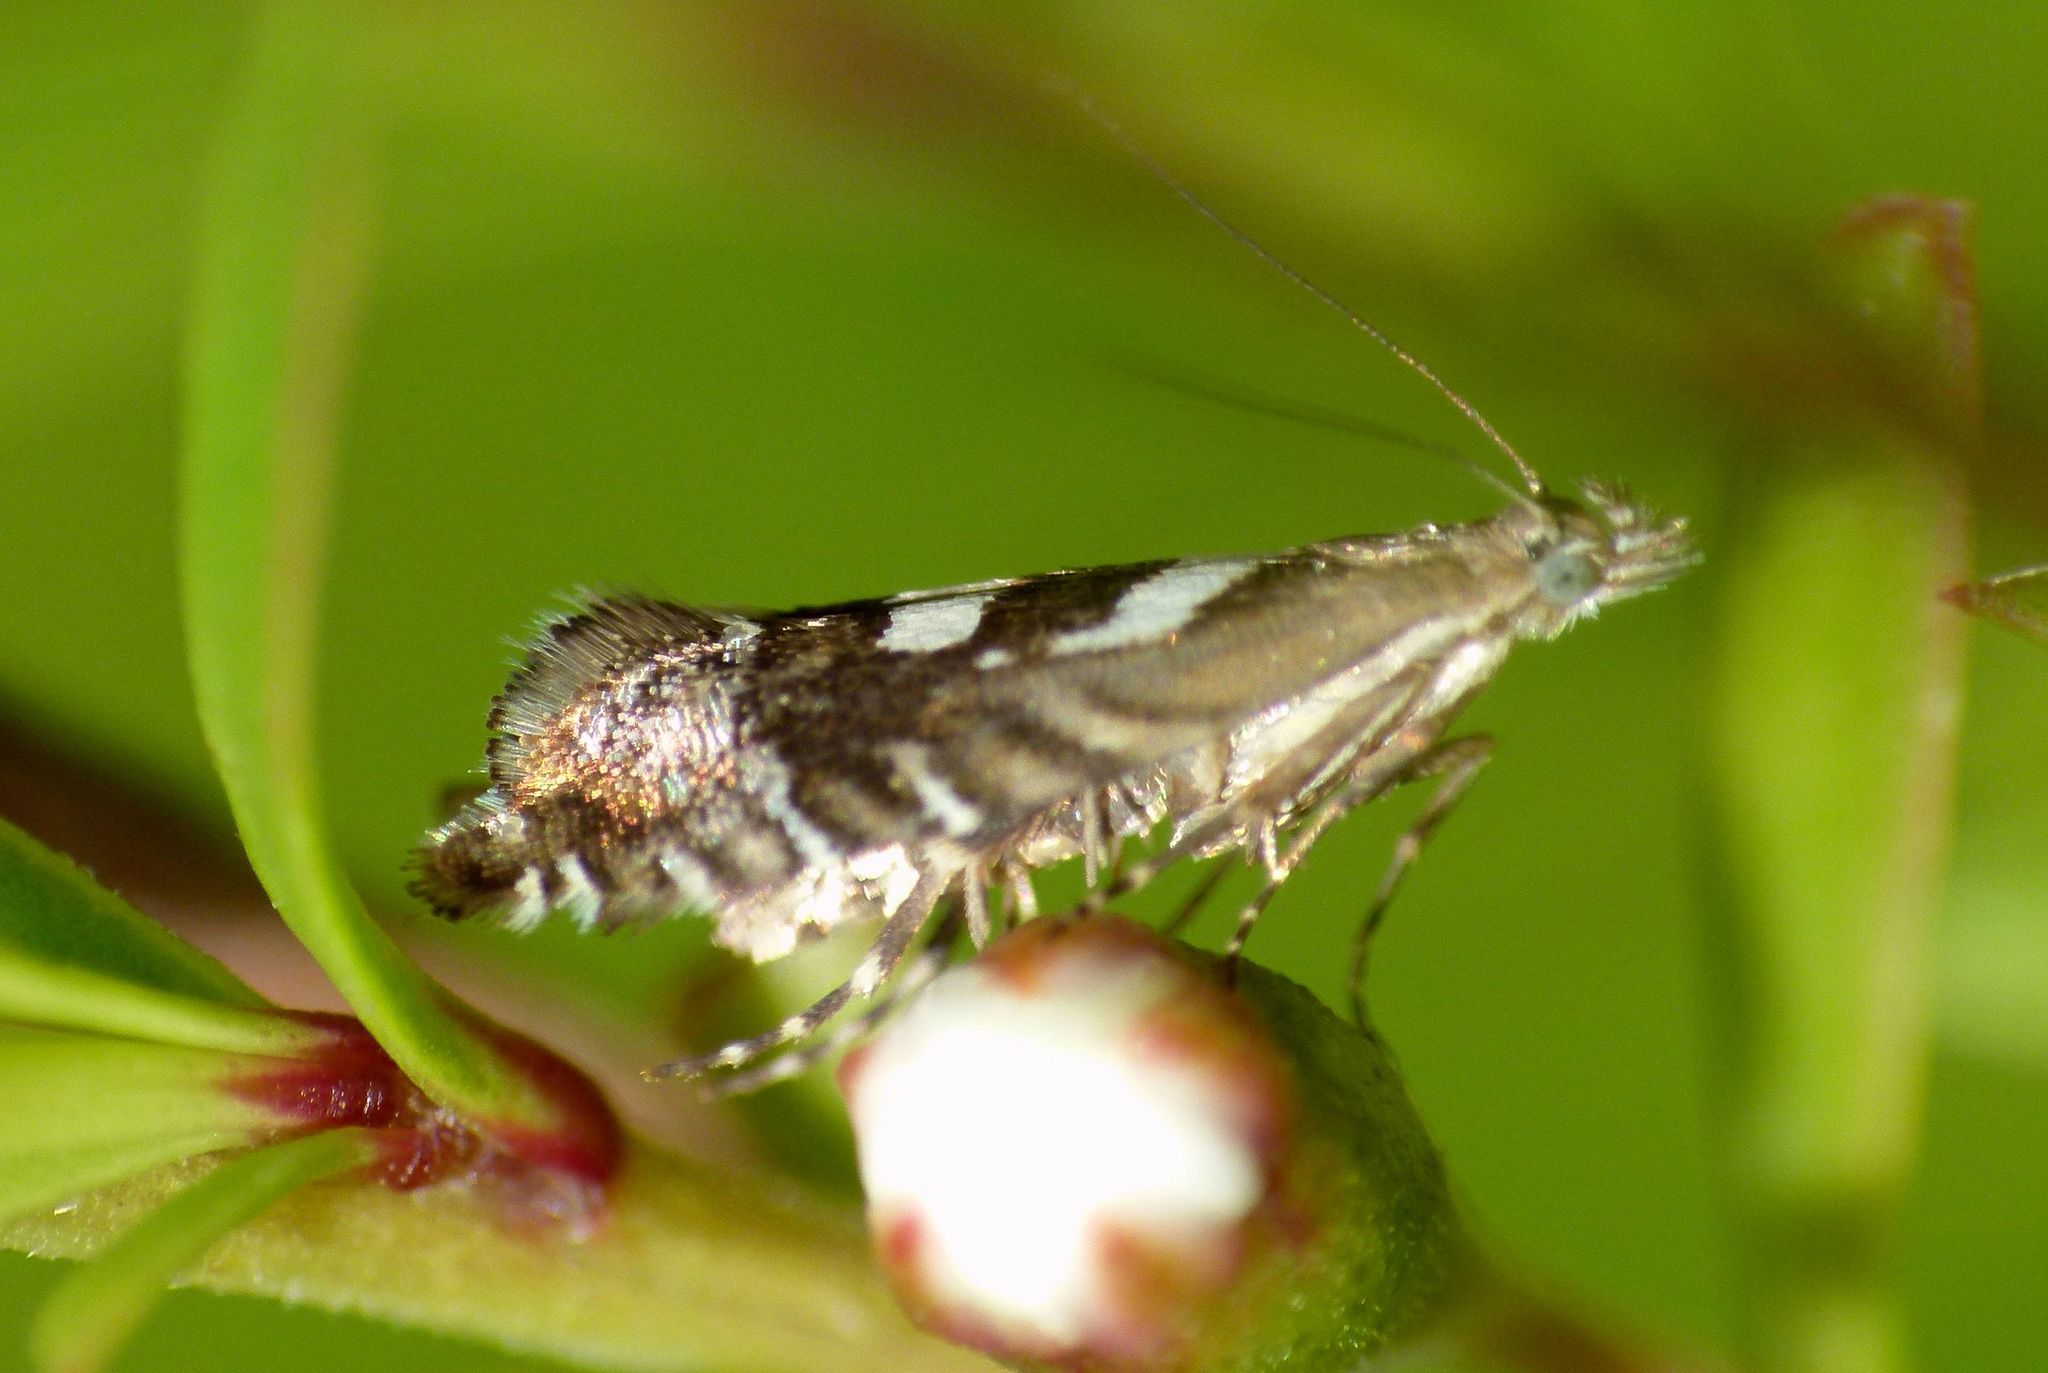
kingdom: Animalia
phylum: Arthropoda
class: Insecta
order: Lepidoptera
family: Glyphipterigidae
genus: Glyphipterix
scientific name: Glyphipterix asteronota
